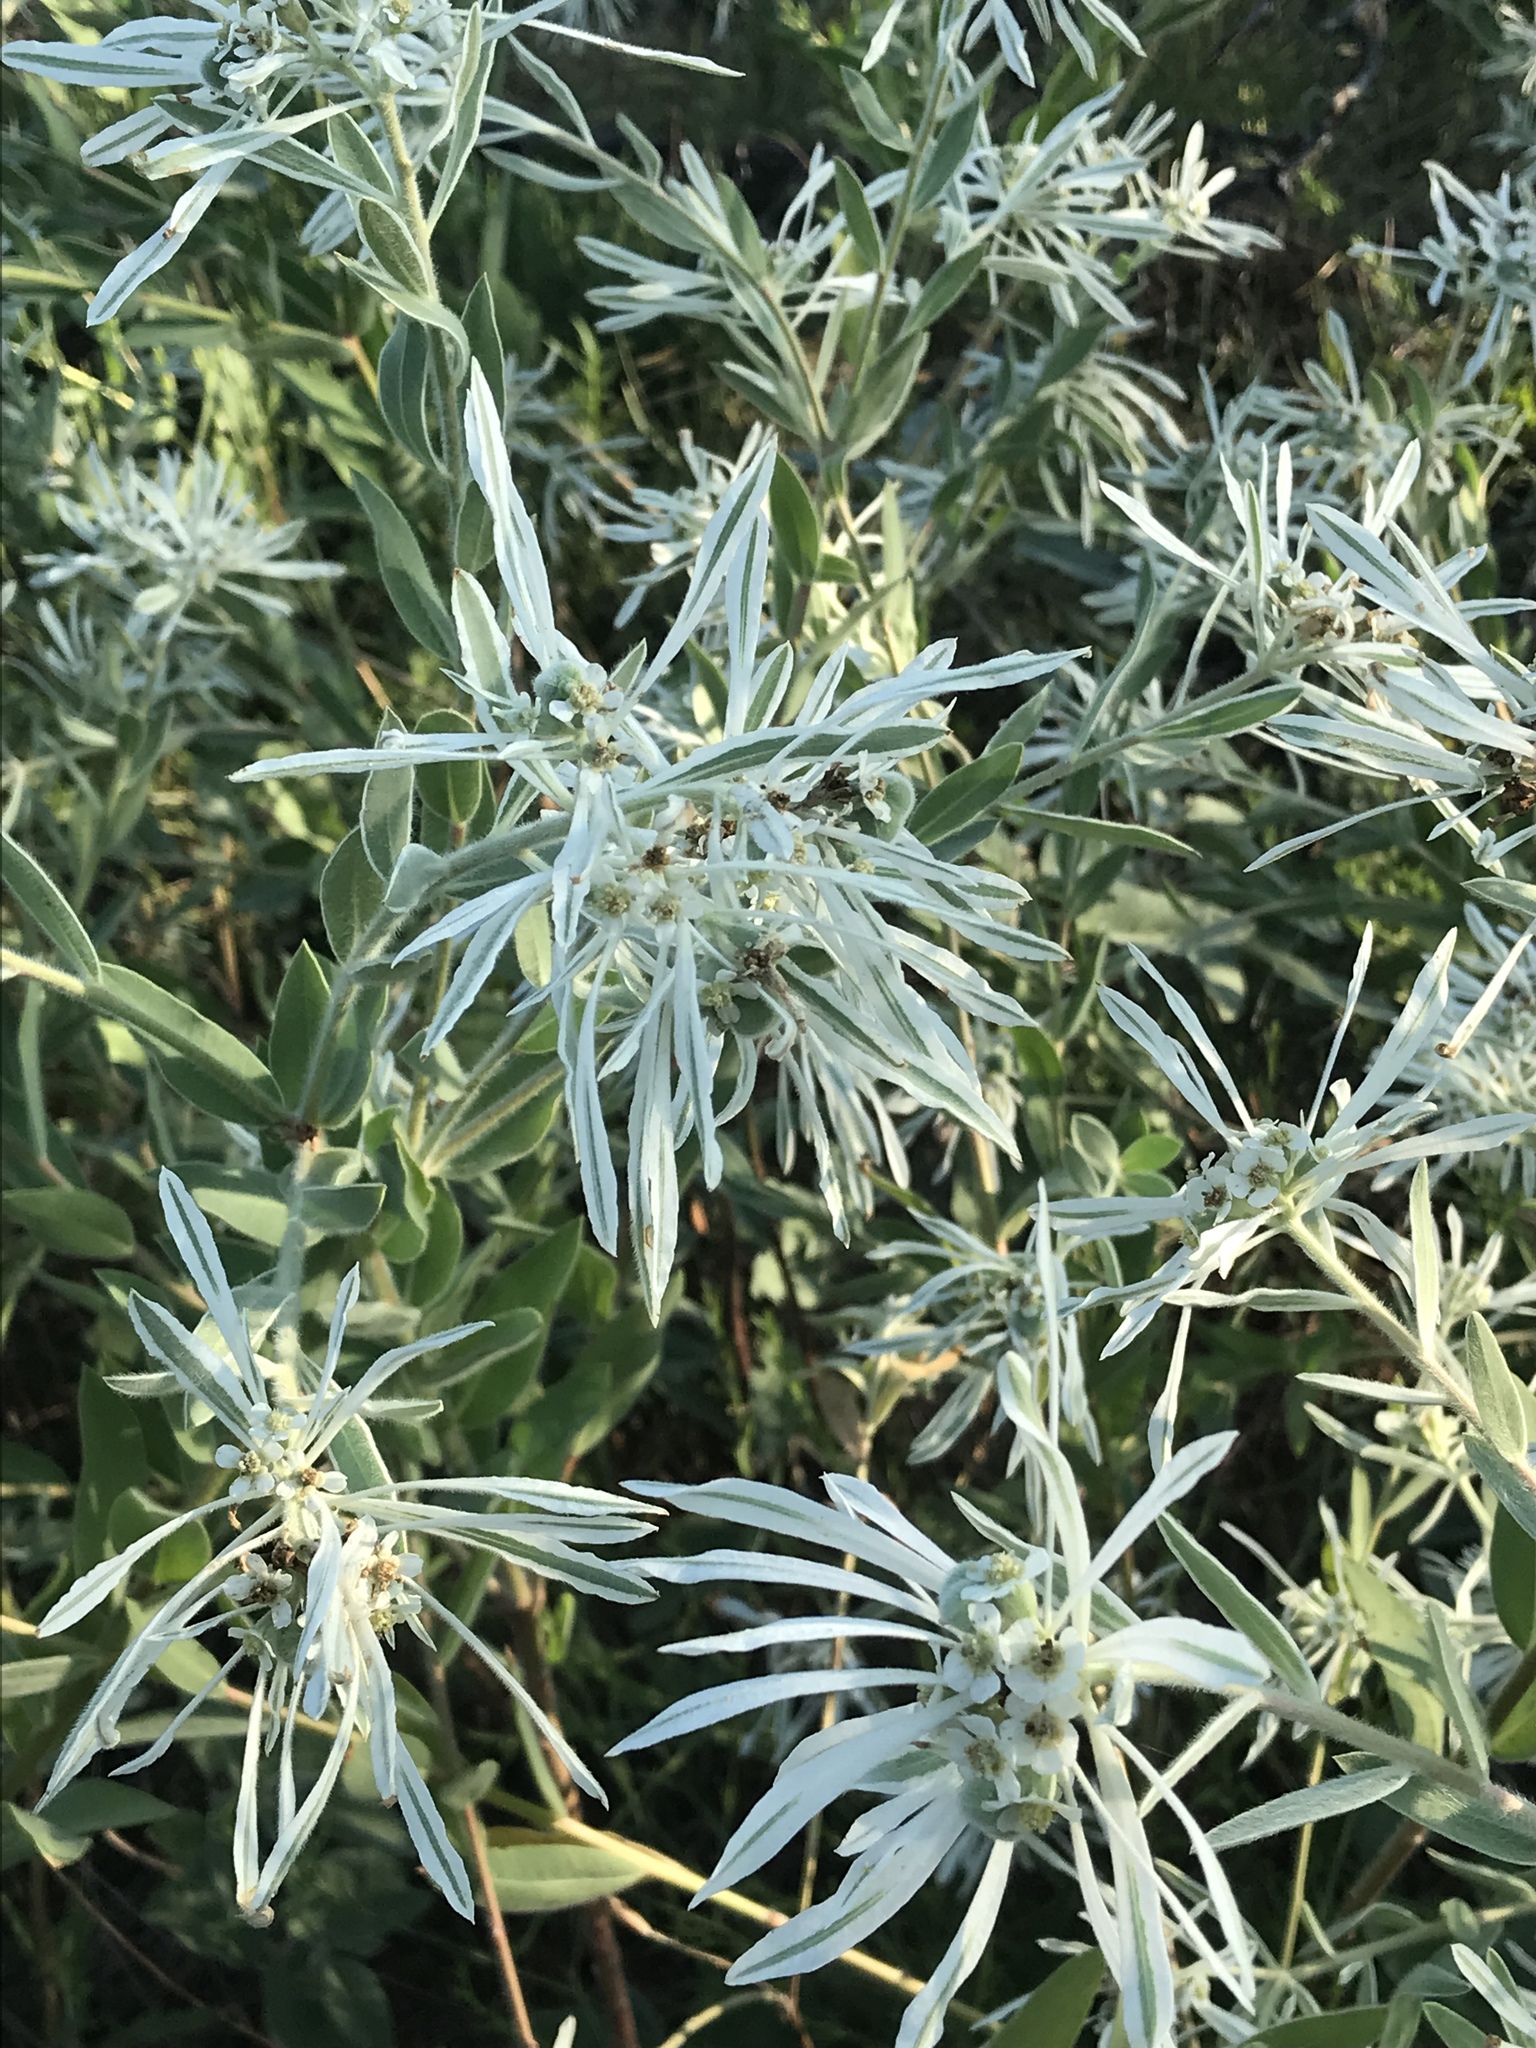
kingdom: Plantae
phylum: Tracheophyta
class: Magnoliopsida
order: Malpighiales
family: Euphorbiaceae
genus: Euphorbia
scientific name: Euphorbia bicolor
